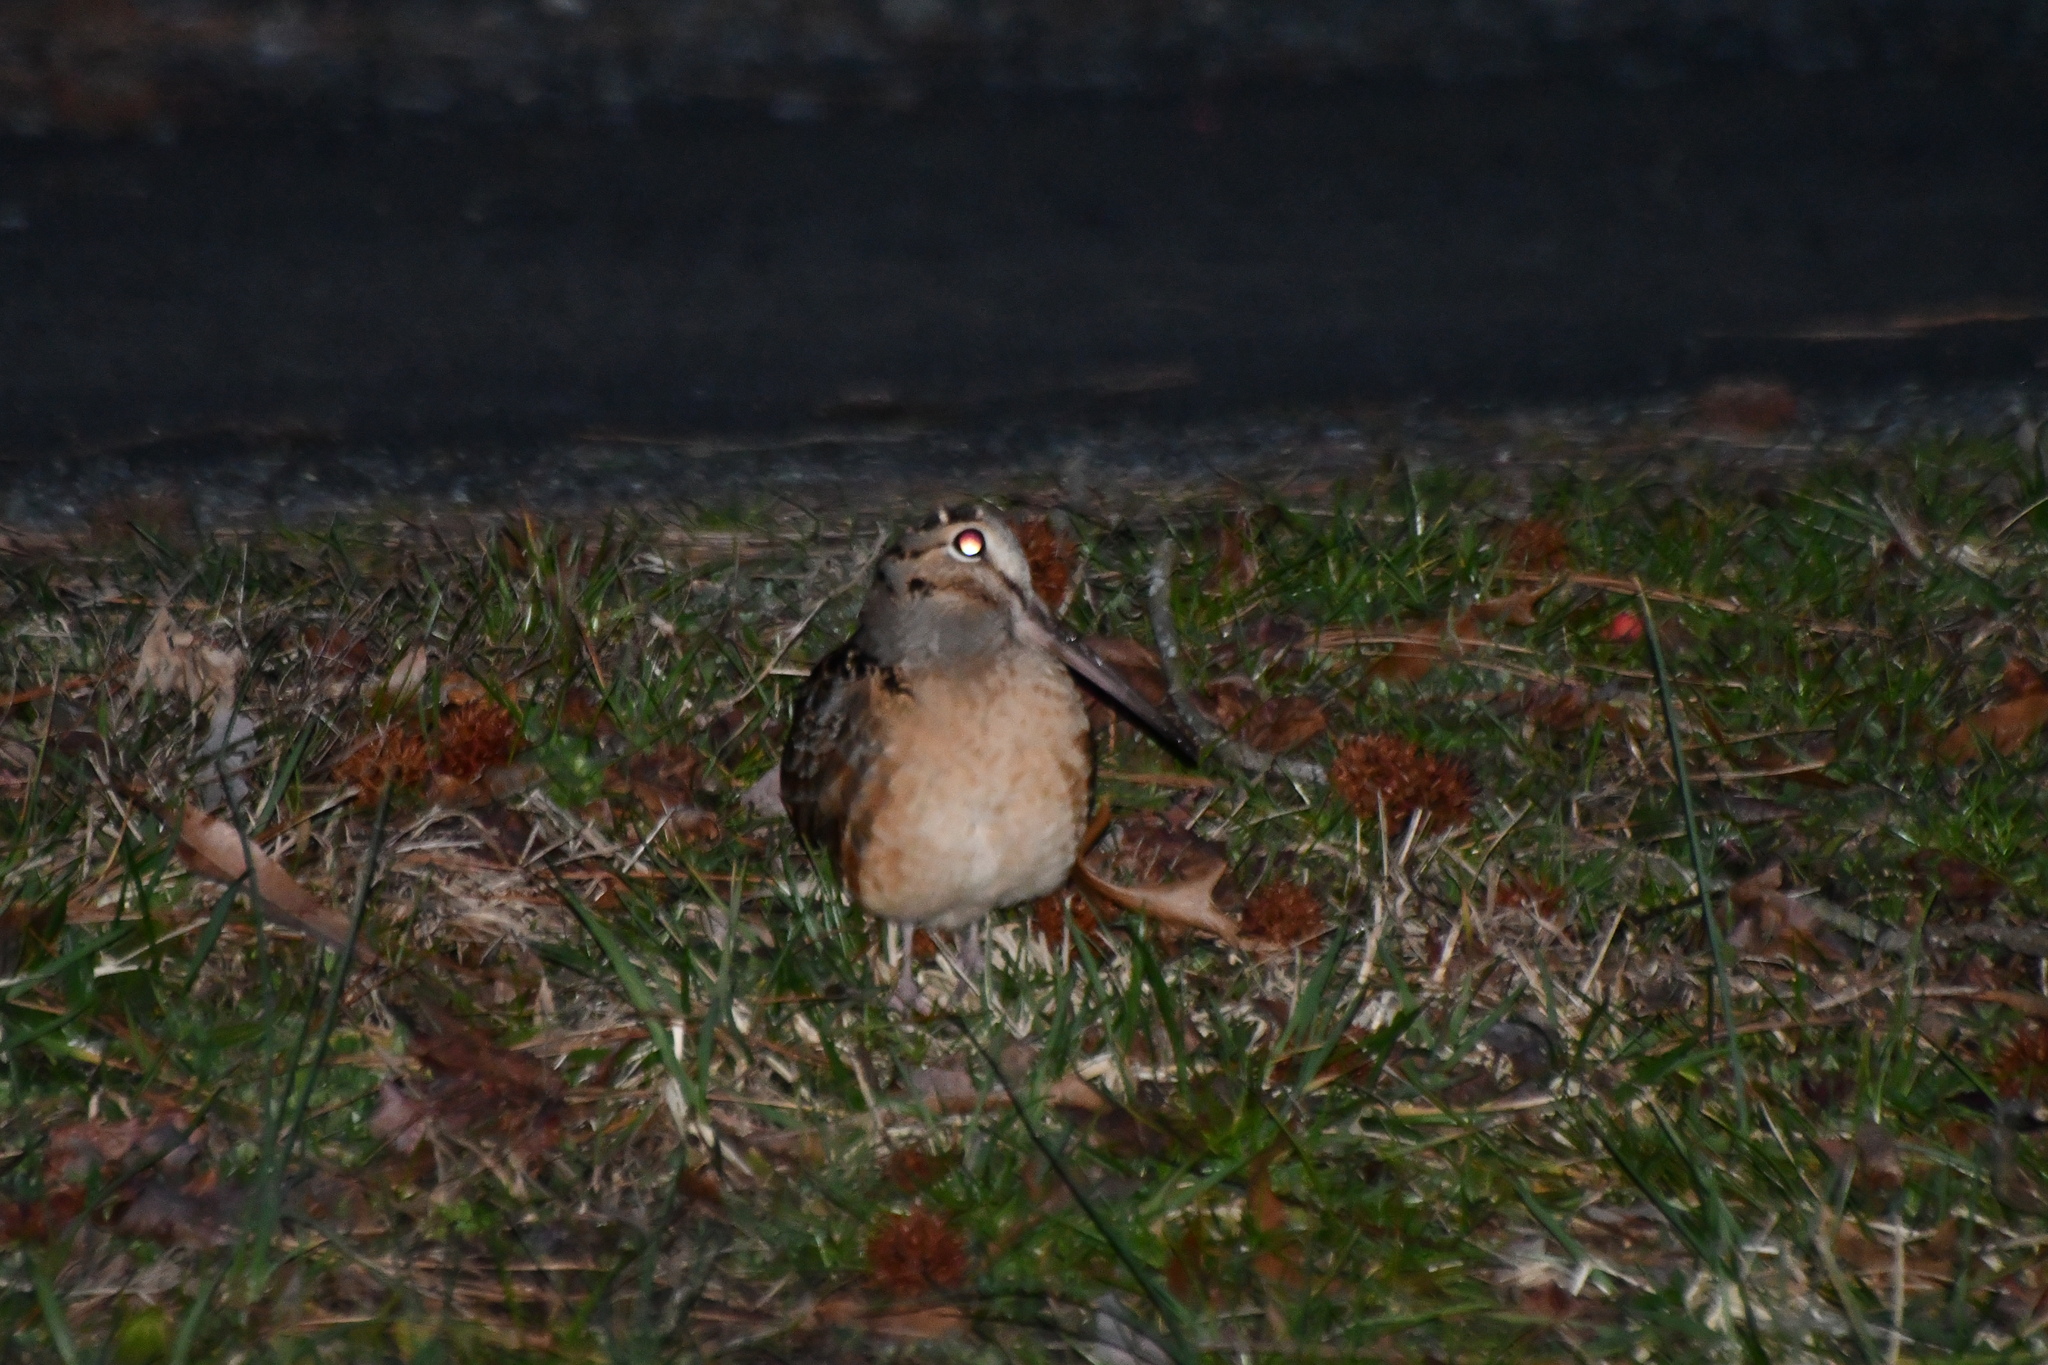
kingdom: Animalia
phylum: Chordata
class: Aves
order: Charadriiformes
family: Scolopacidae
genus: Scolopax
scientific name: Scolopax minor
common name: American woodcock
